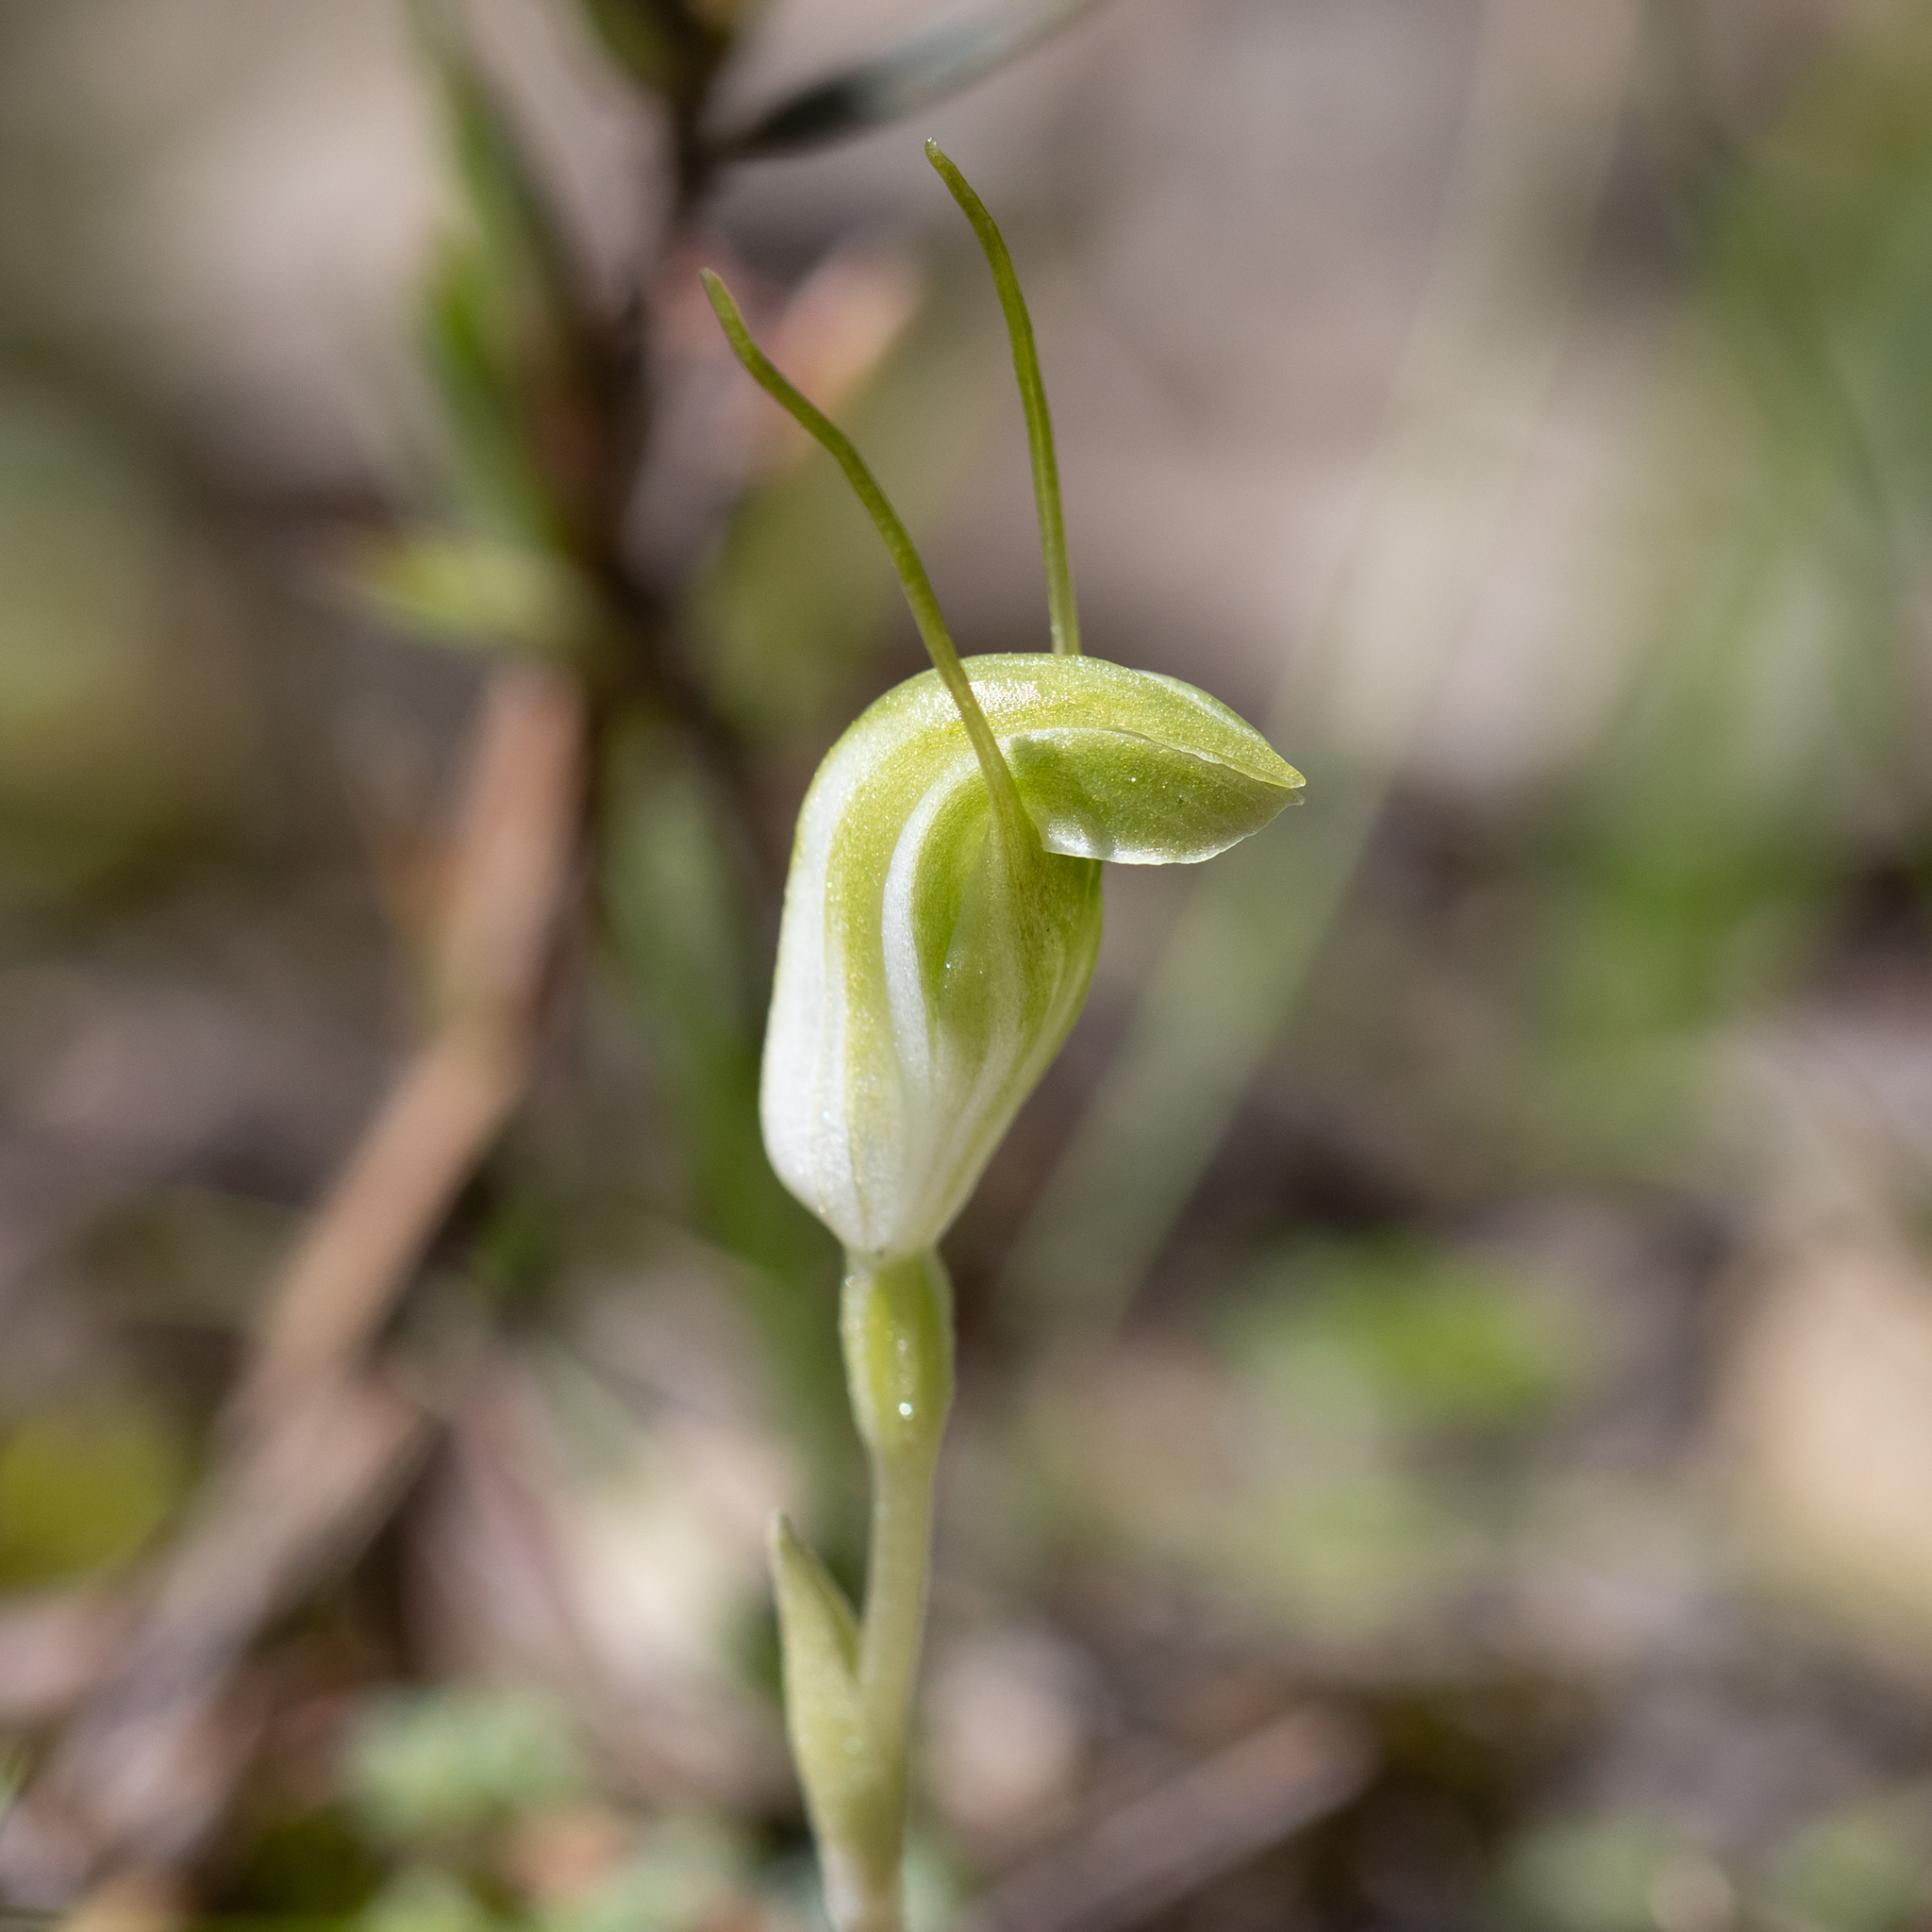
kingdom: Plantae
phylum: Tracheophyta
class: Liliopsida
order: Asparagales
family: Orchidaceae
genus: Pterostylis
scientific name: Pterostylis nana
